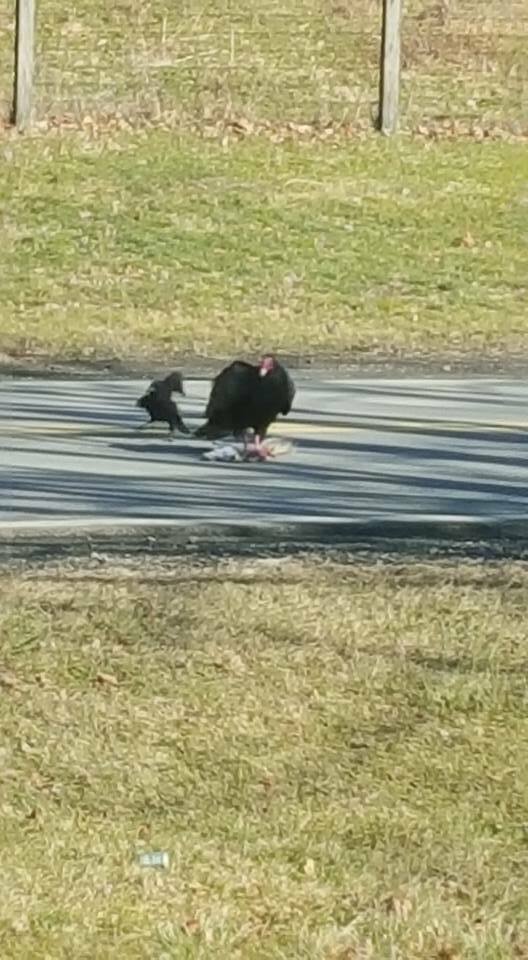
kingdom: Animalia
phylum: Chordata
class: Aves
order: Accipitriformes
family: Cathartidae
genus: Cathartes
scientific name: Cathartes aura
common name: Turkey vulture
